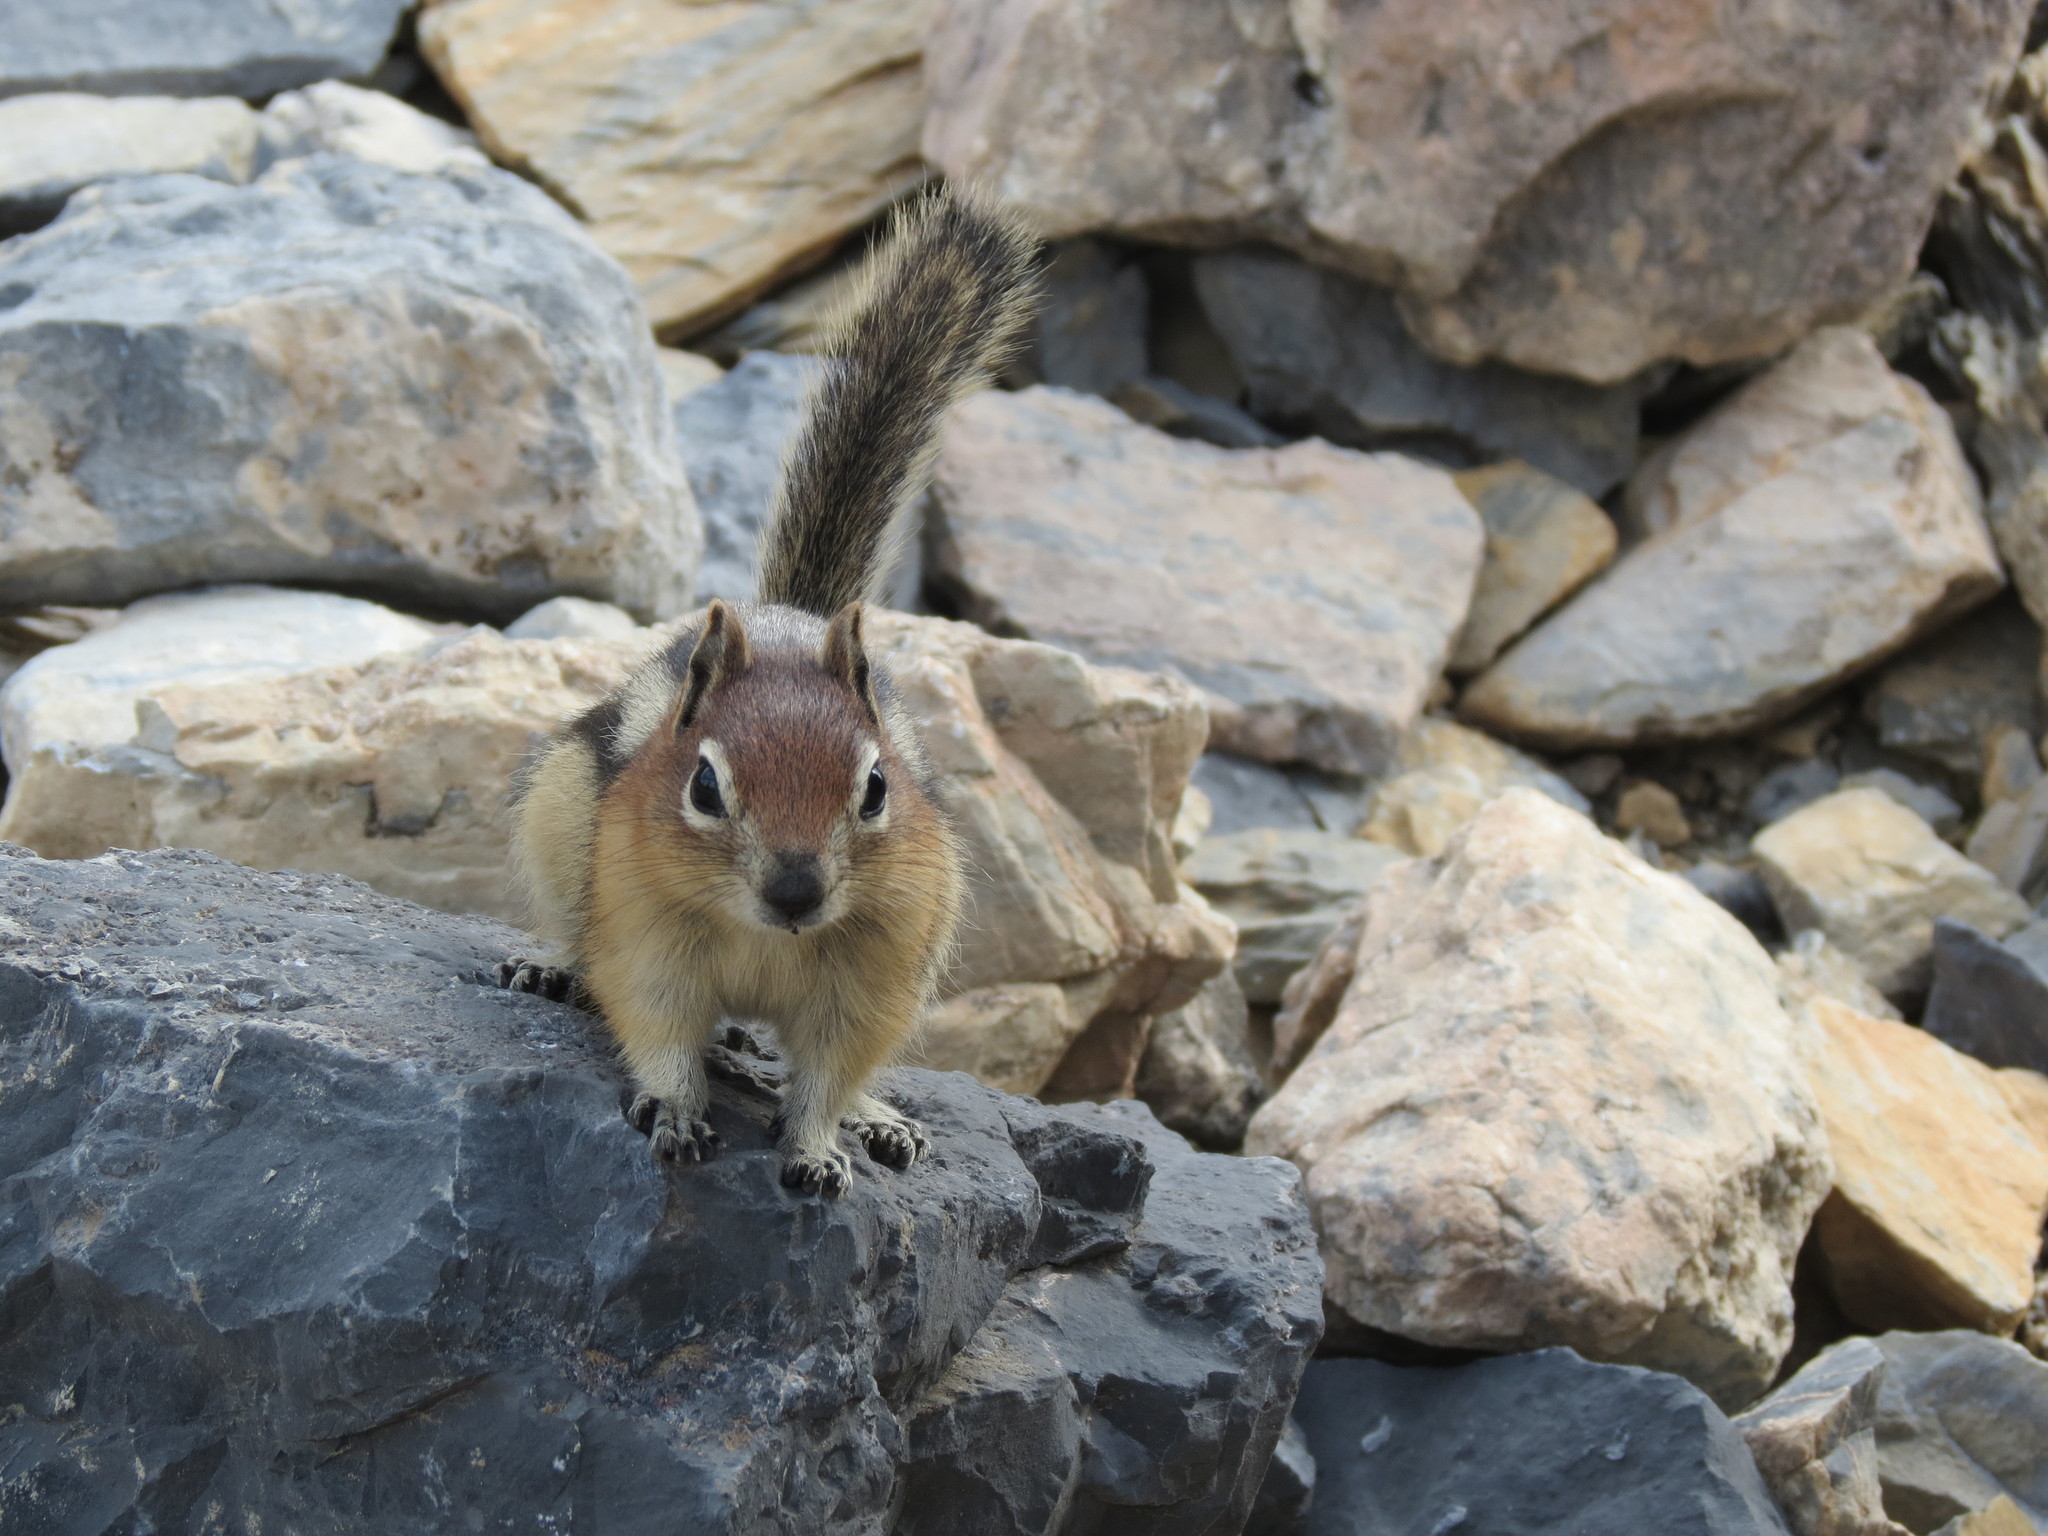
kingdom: Animalia
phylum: Chordata
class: Mammalia
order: Rodentia
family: Sciuridae
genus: Callospermophilus
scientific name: Callospermophilus lateralis
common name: Golden-mantled ground squirrel
